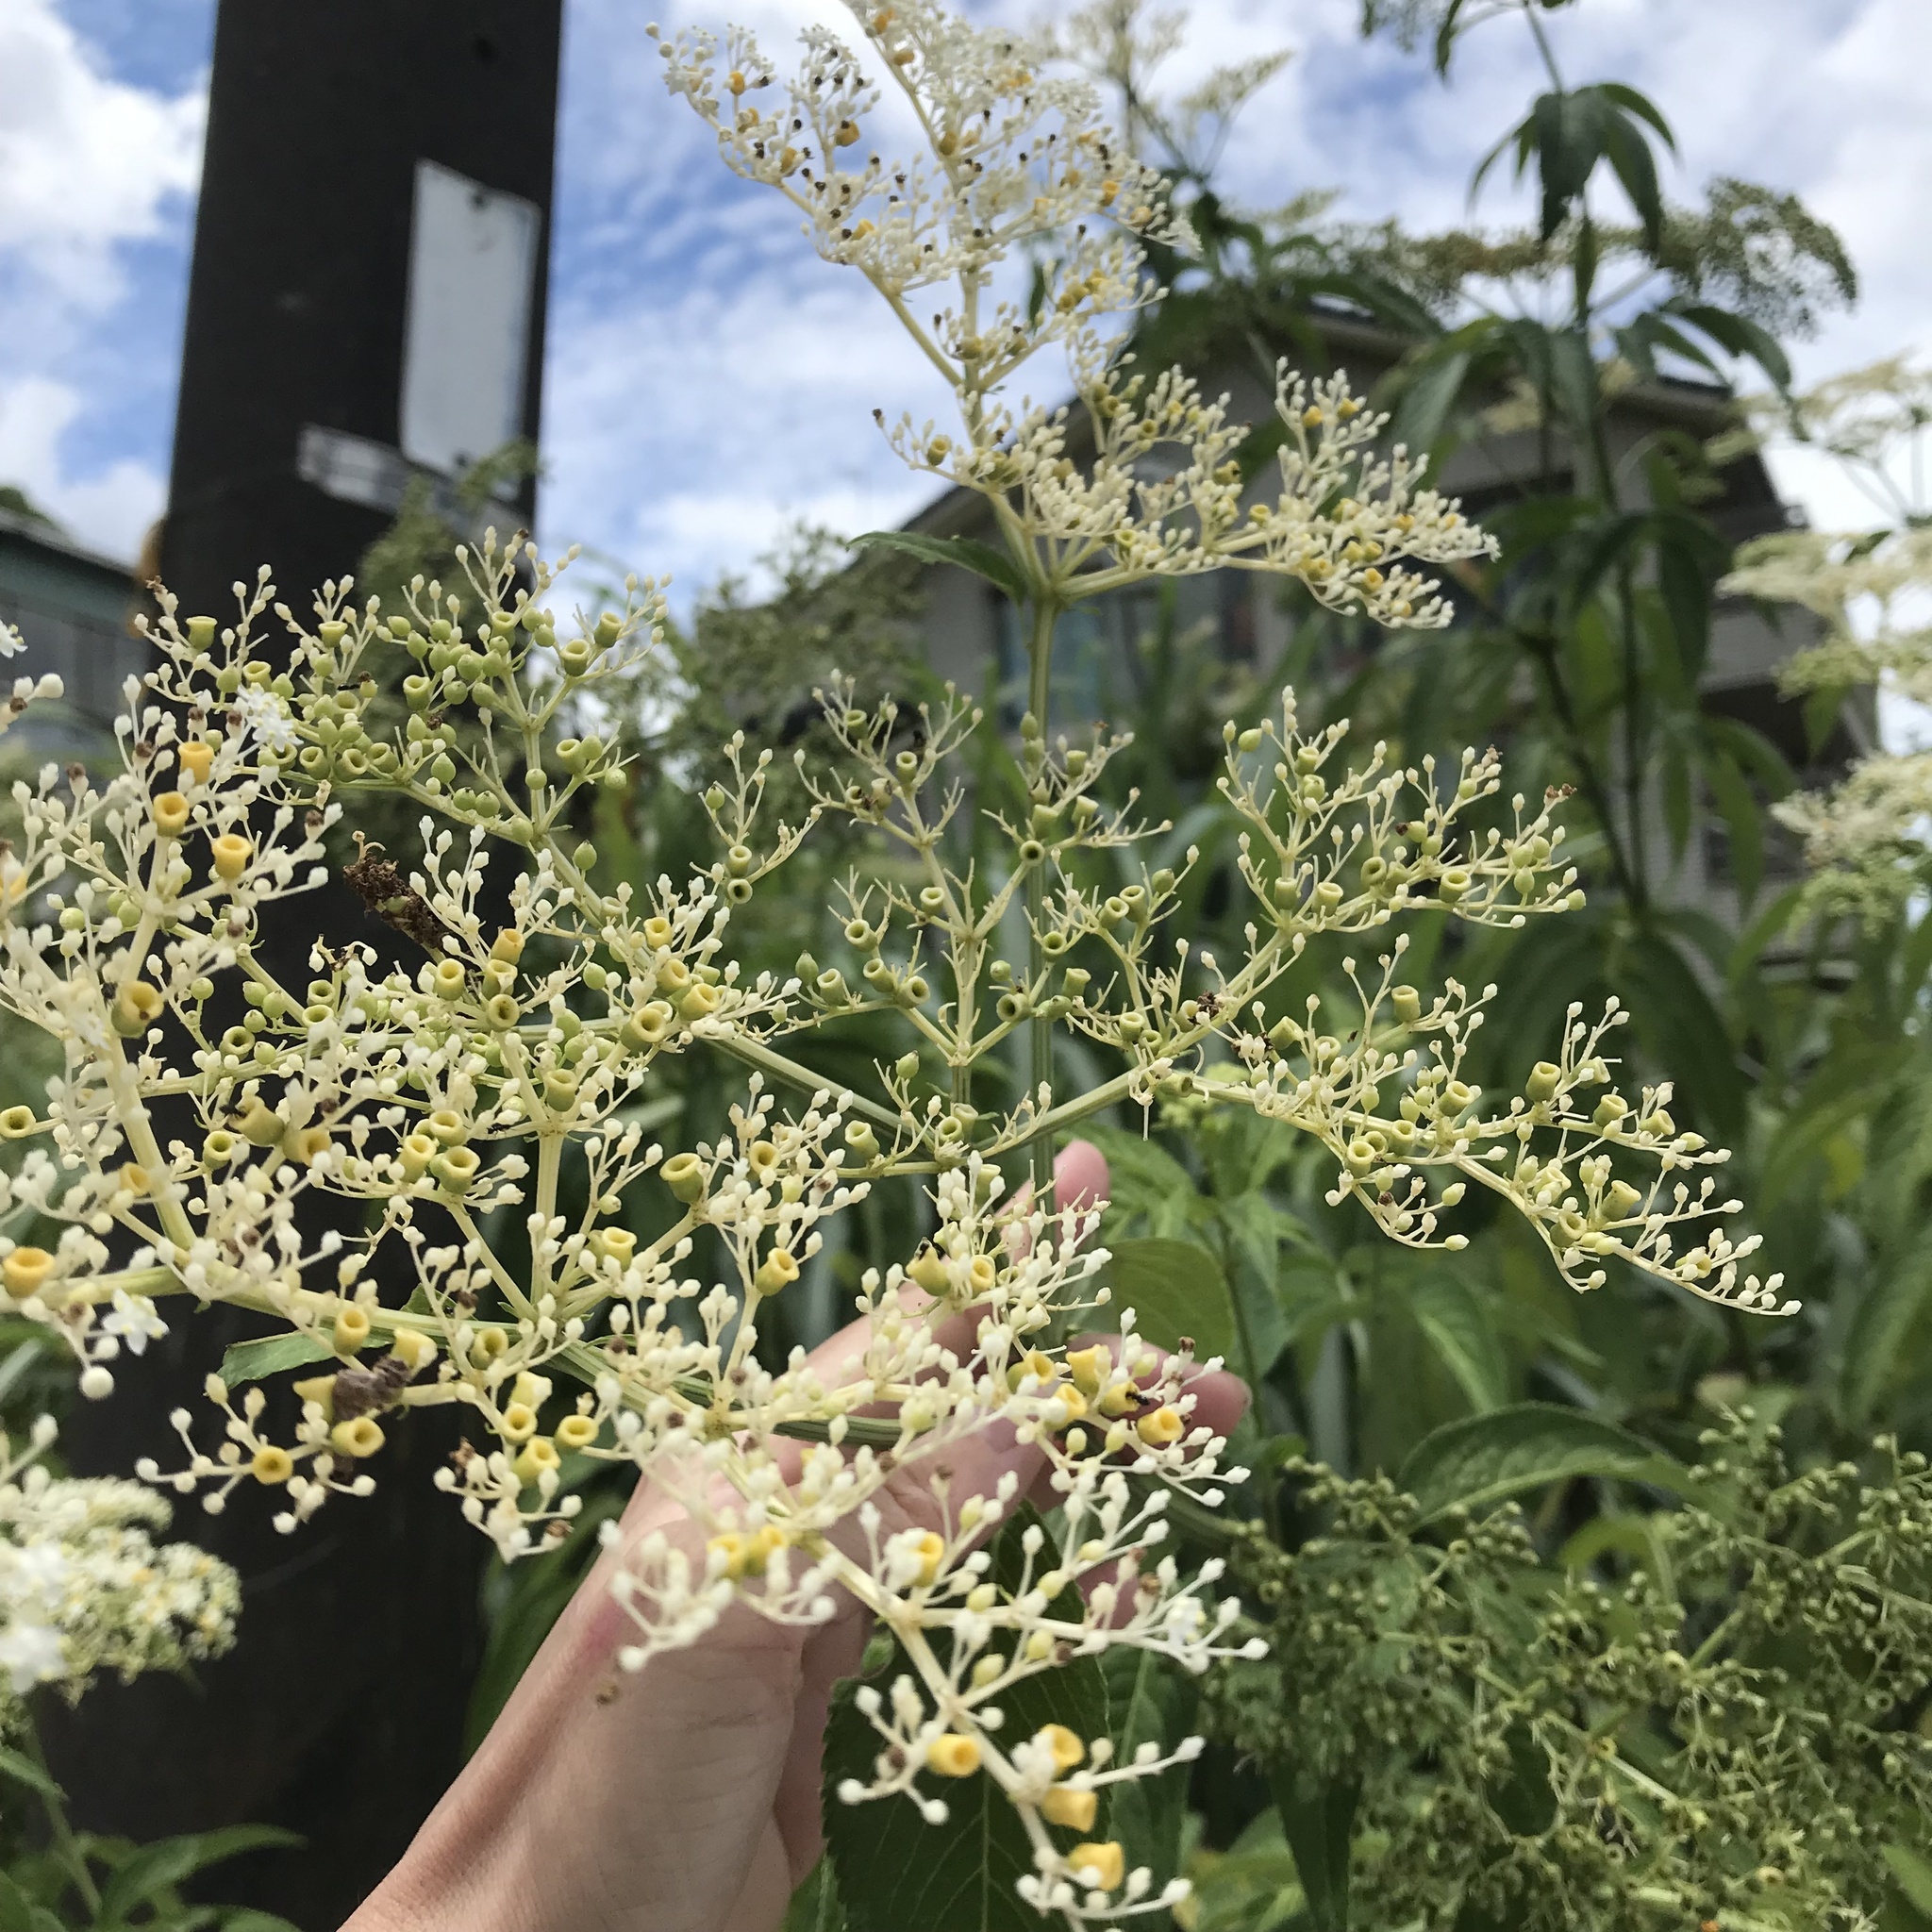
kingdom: Plantae
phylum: Tracheophyta
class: Magnoliopsida
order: Dipsacales
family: Viburnaceae
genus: Sambucus
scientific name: Sambucus javanica
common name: Chinese elder
